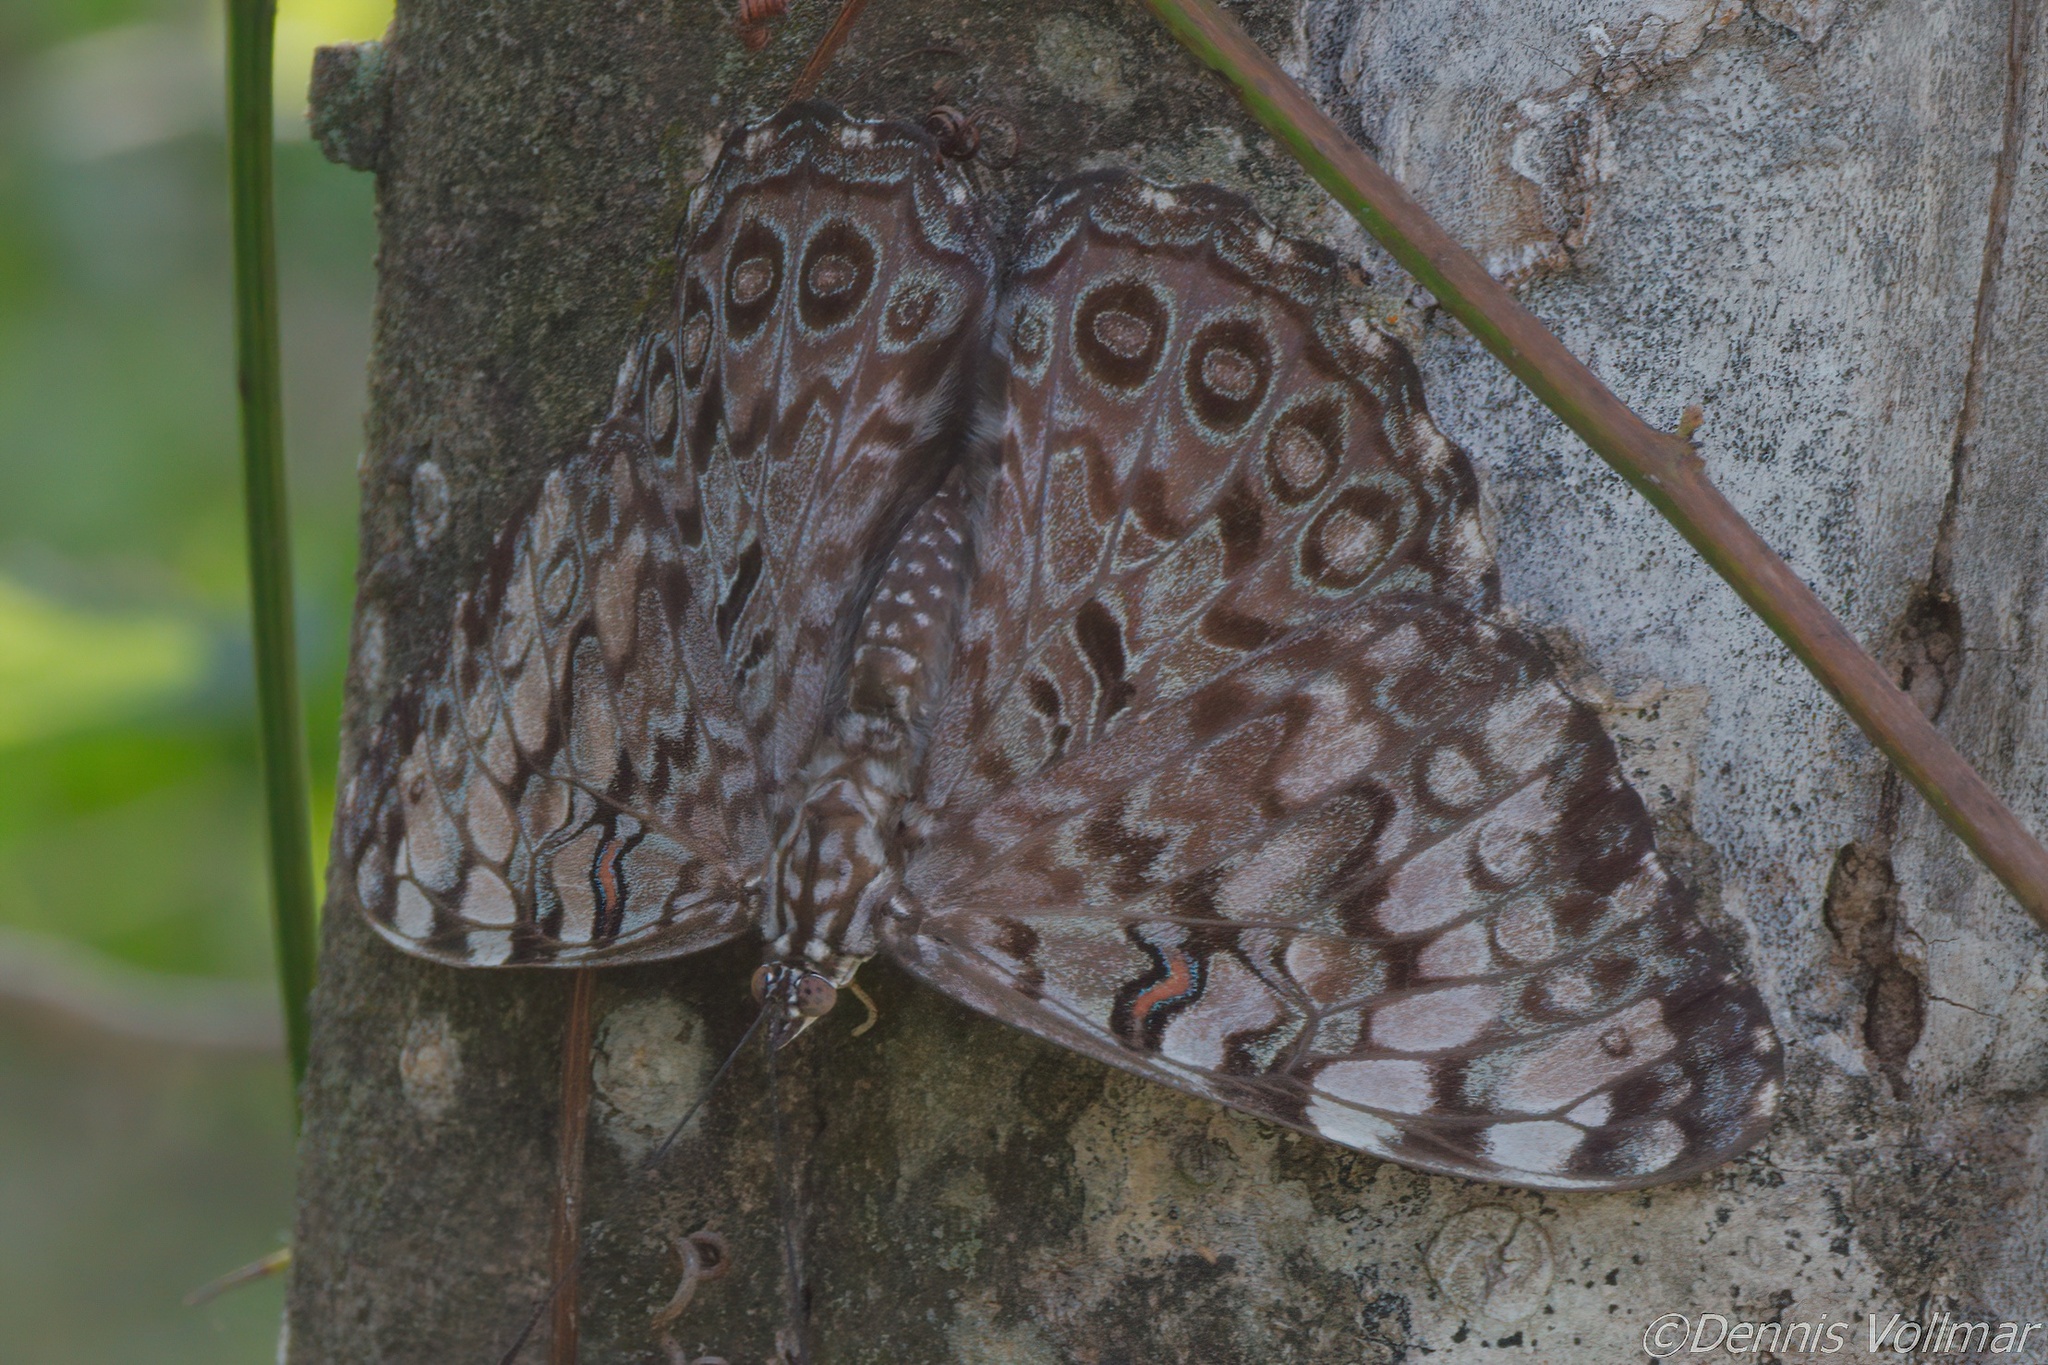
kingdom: Animalia
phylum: Arthropoda
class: Insecta
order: Lepidoptera
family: Nymphalidae
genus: Hamadryas
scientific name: Hamadryas guatemalena
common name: Guatemalan cracker
